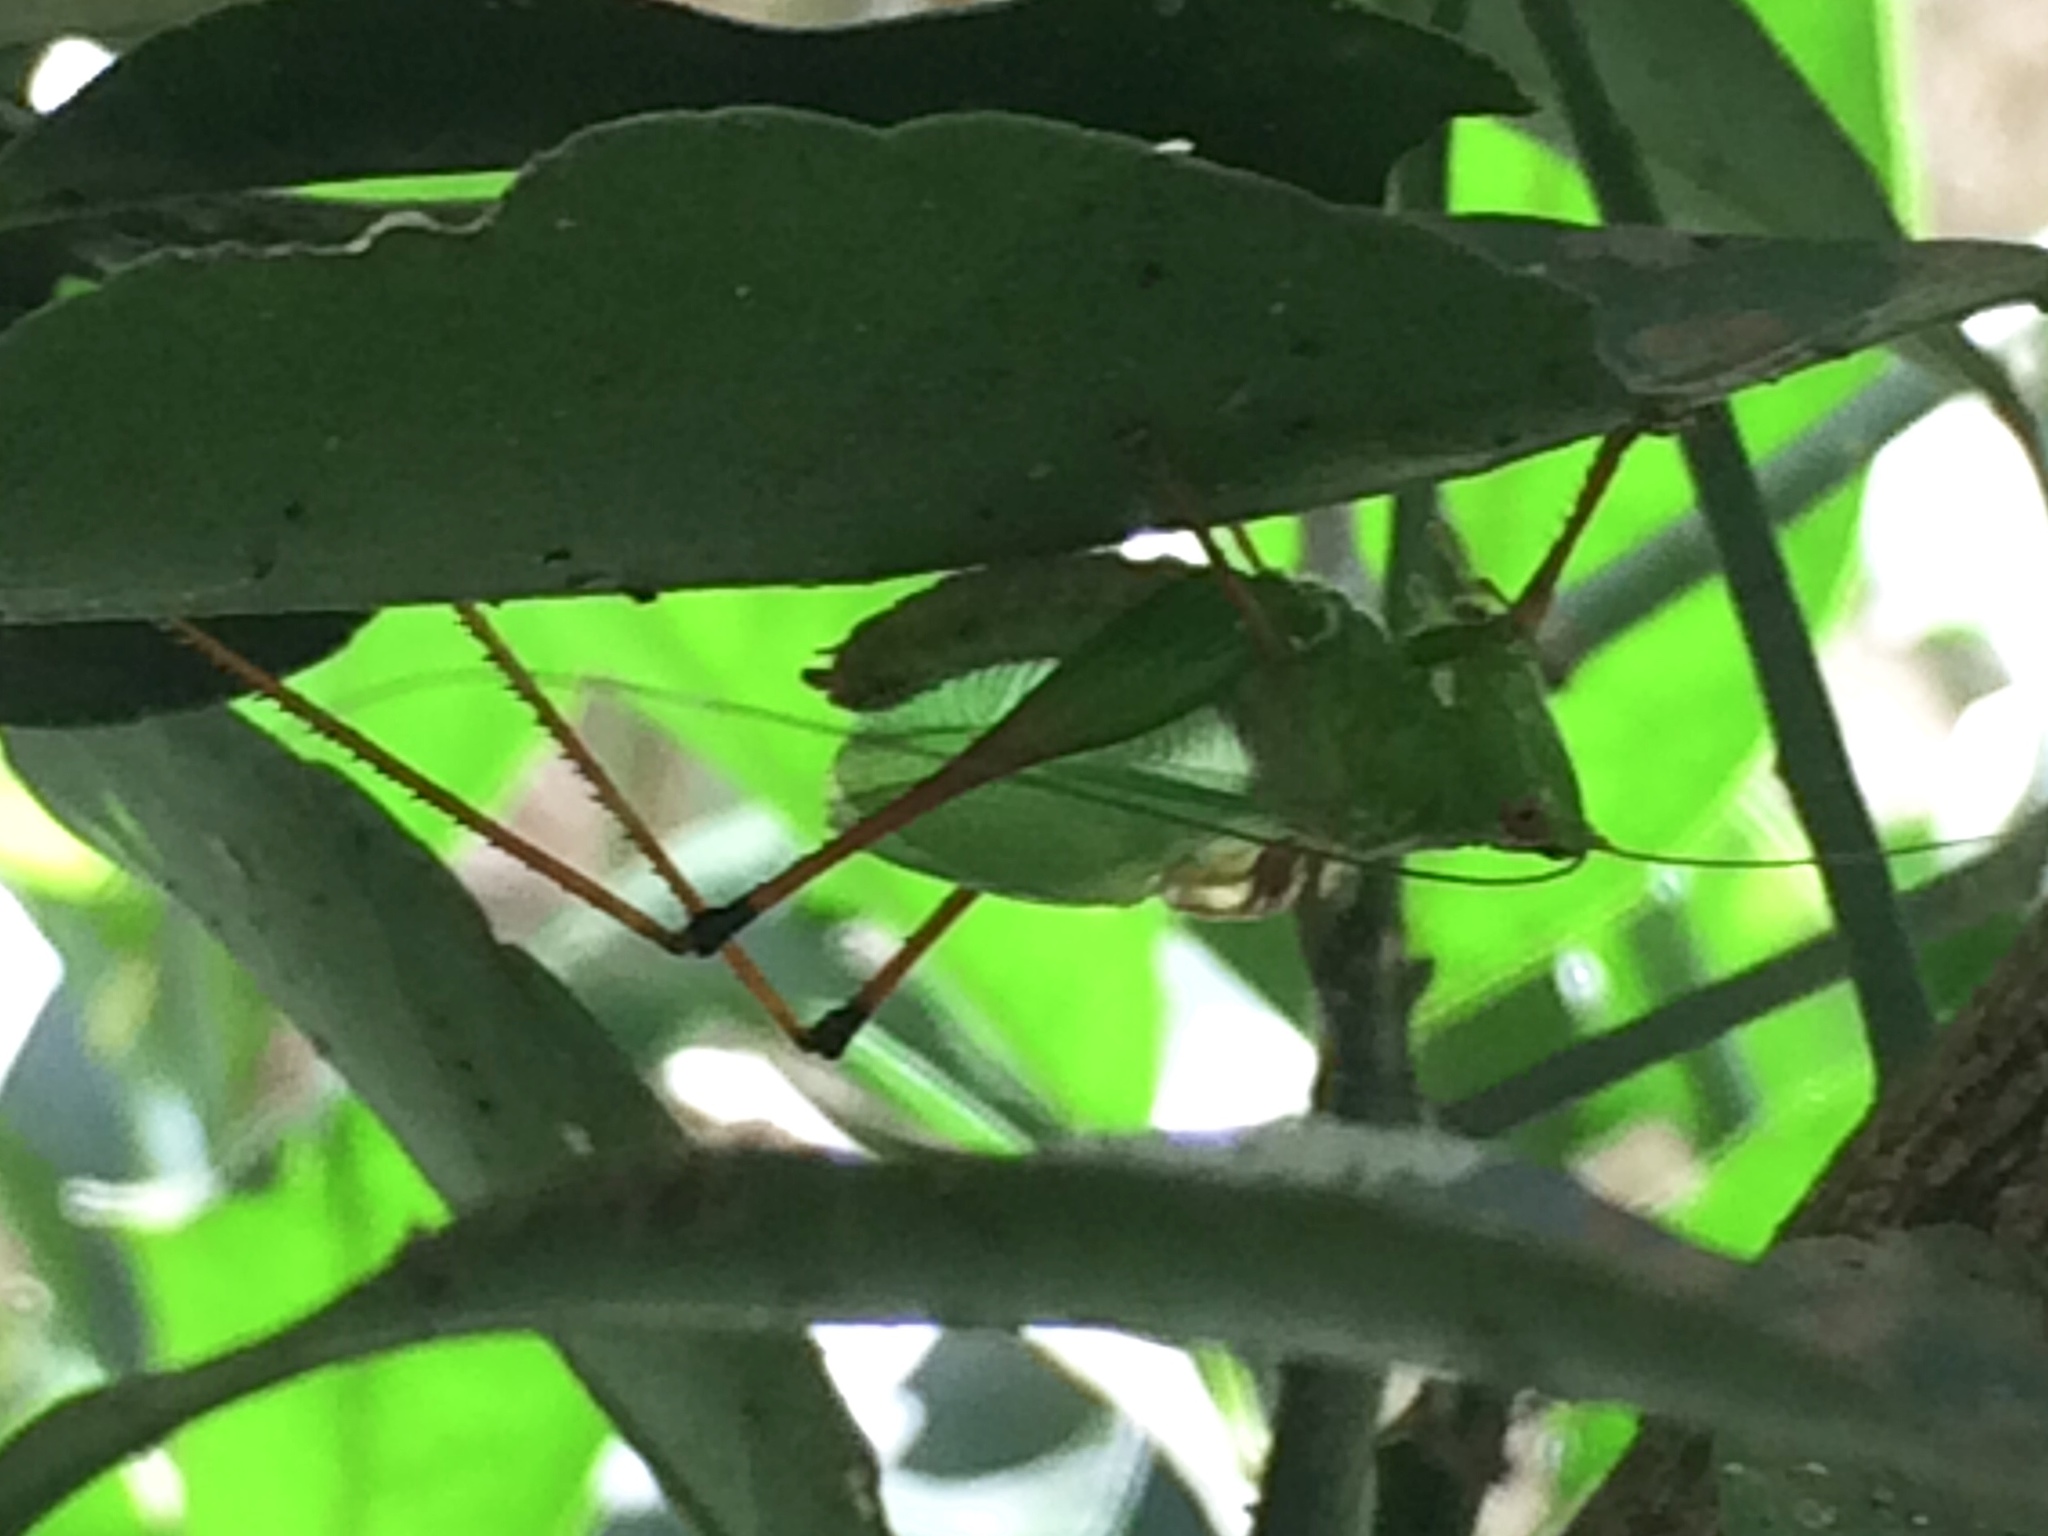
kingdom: Animalia
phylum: Arthropoda
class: Insecta
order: Orthoptera
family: Tettigoniidae
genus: Xiphelimum
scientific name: Xiphelimum amplipennis
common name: Clear-wing meadow katydid
